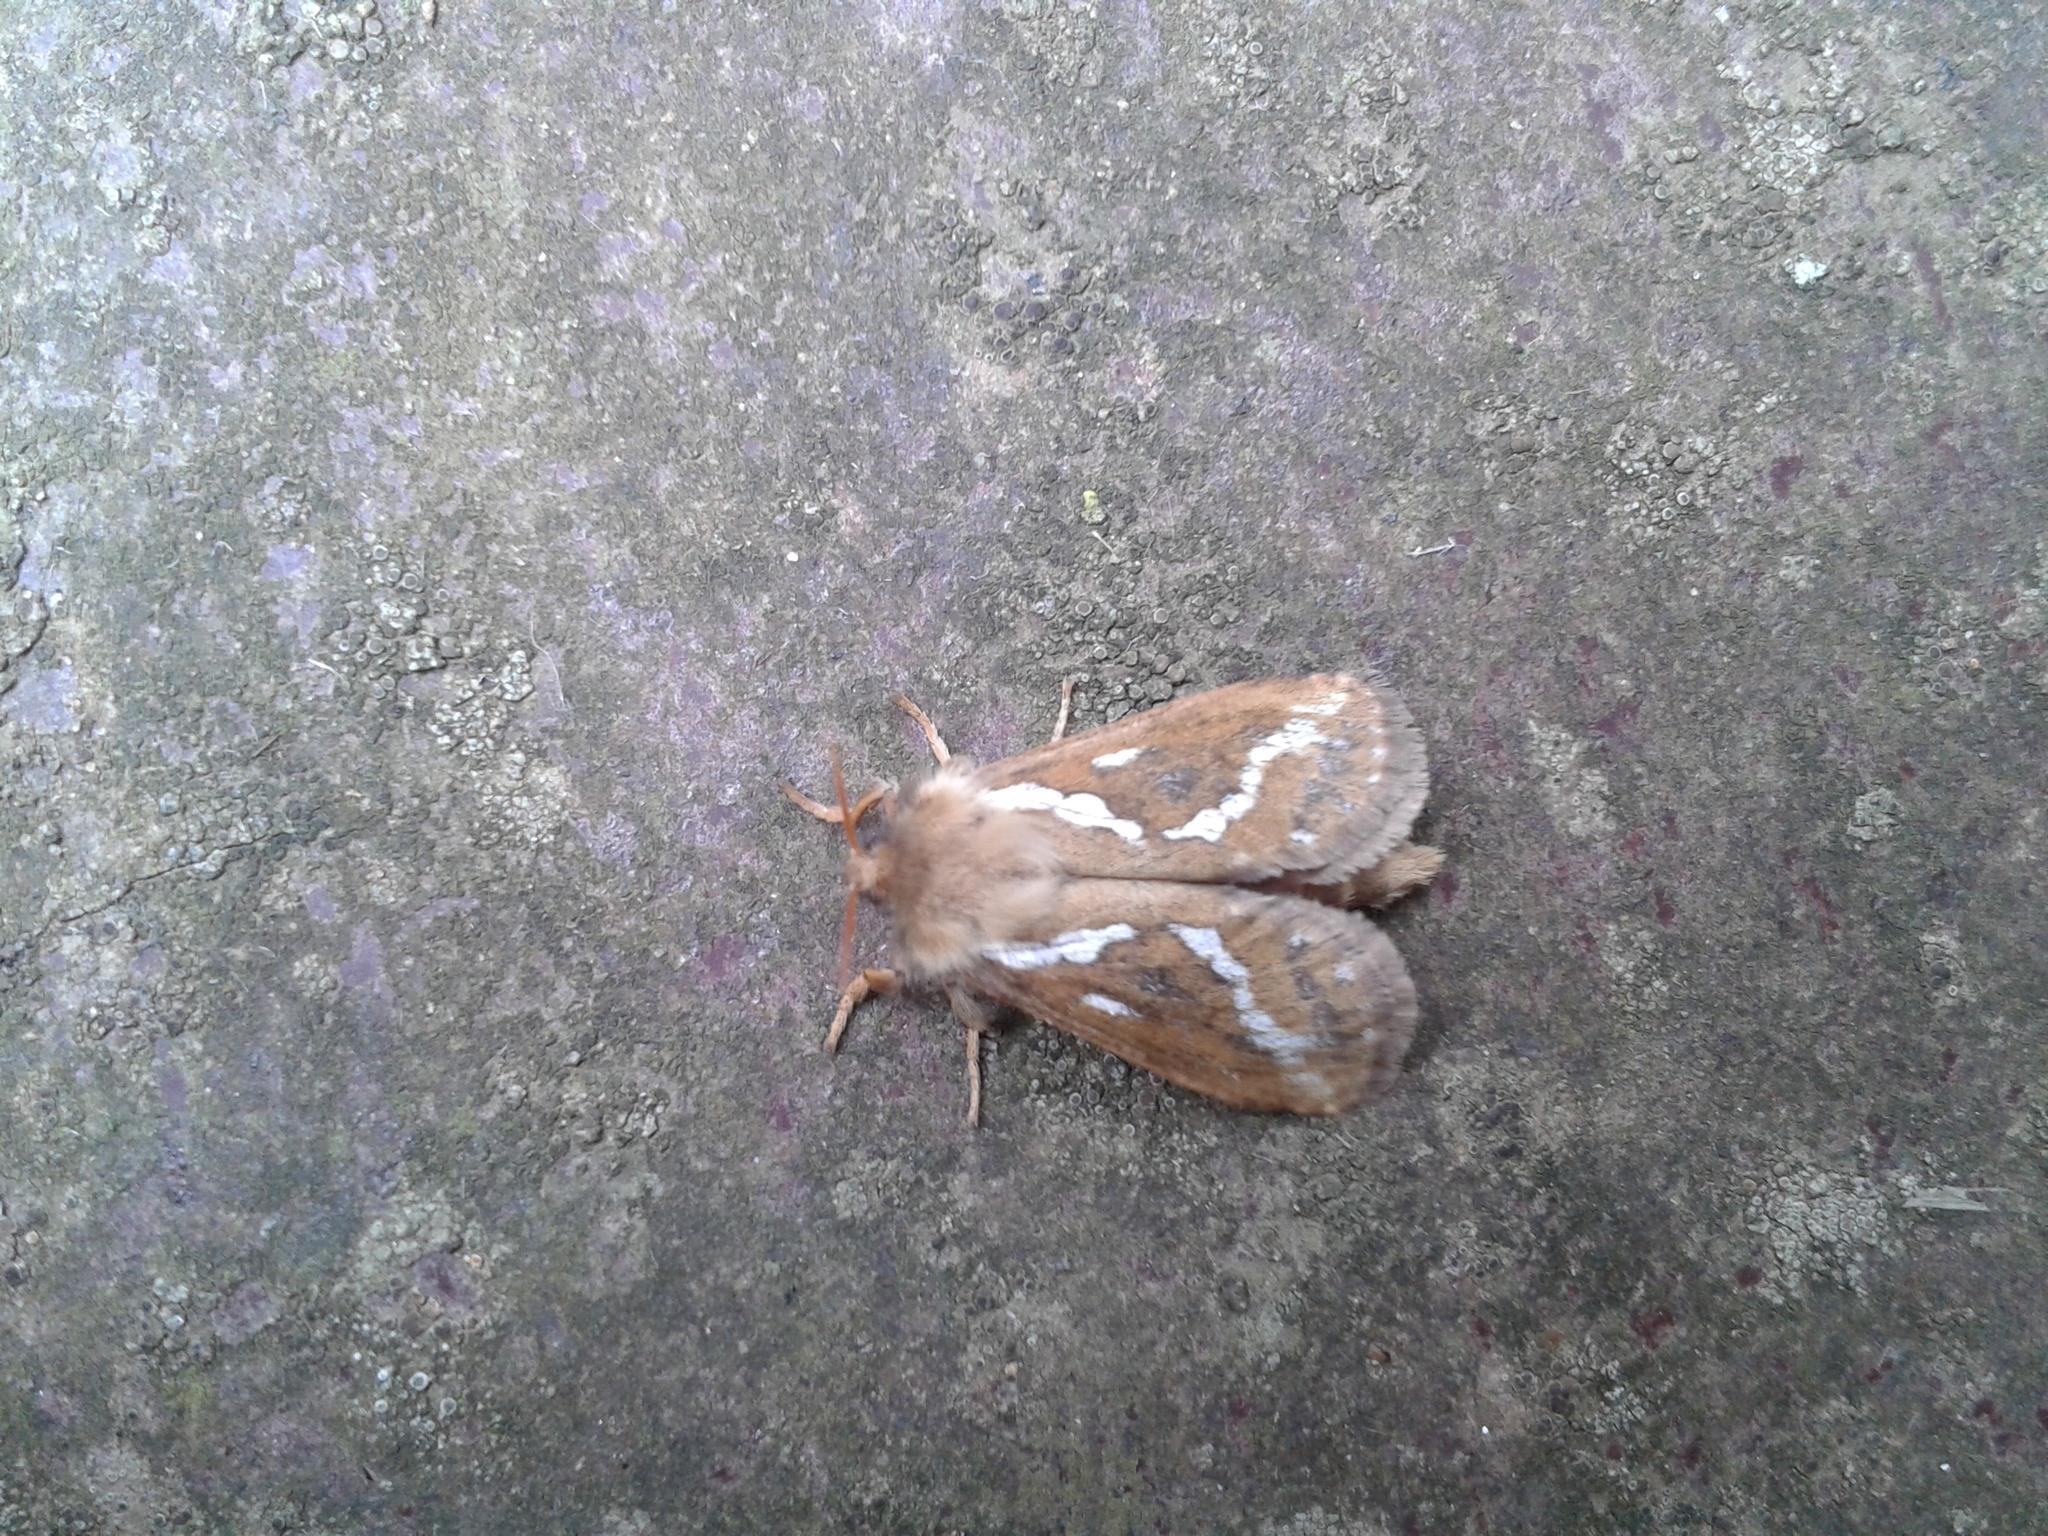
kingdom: Animalia
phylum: Arthropoda
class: Insecta
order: Lepidoptera
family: Hepialidae
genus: Korscheltellus
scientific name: Korscheltellus lupulina
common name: Common swift
